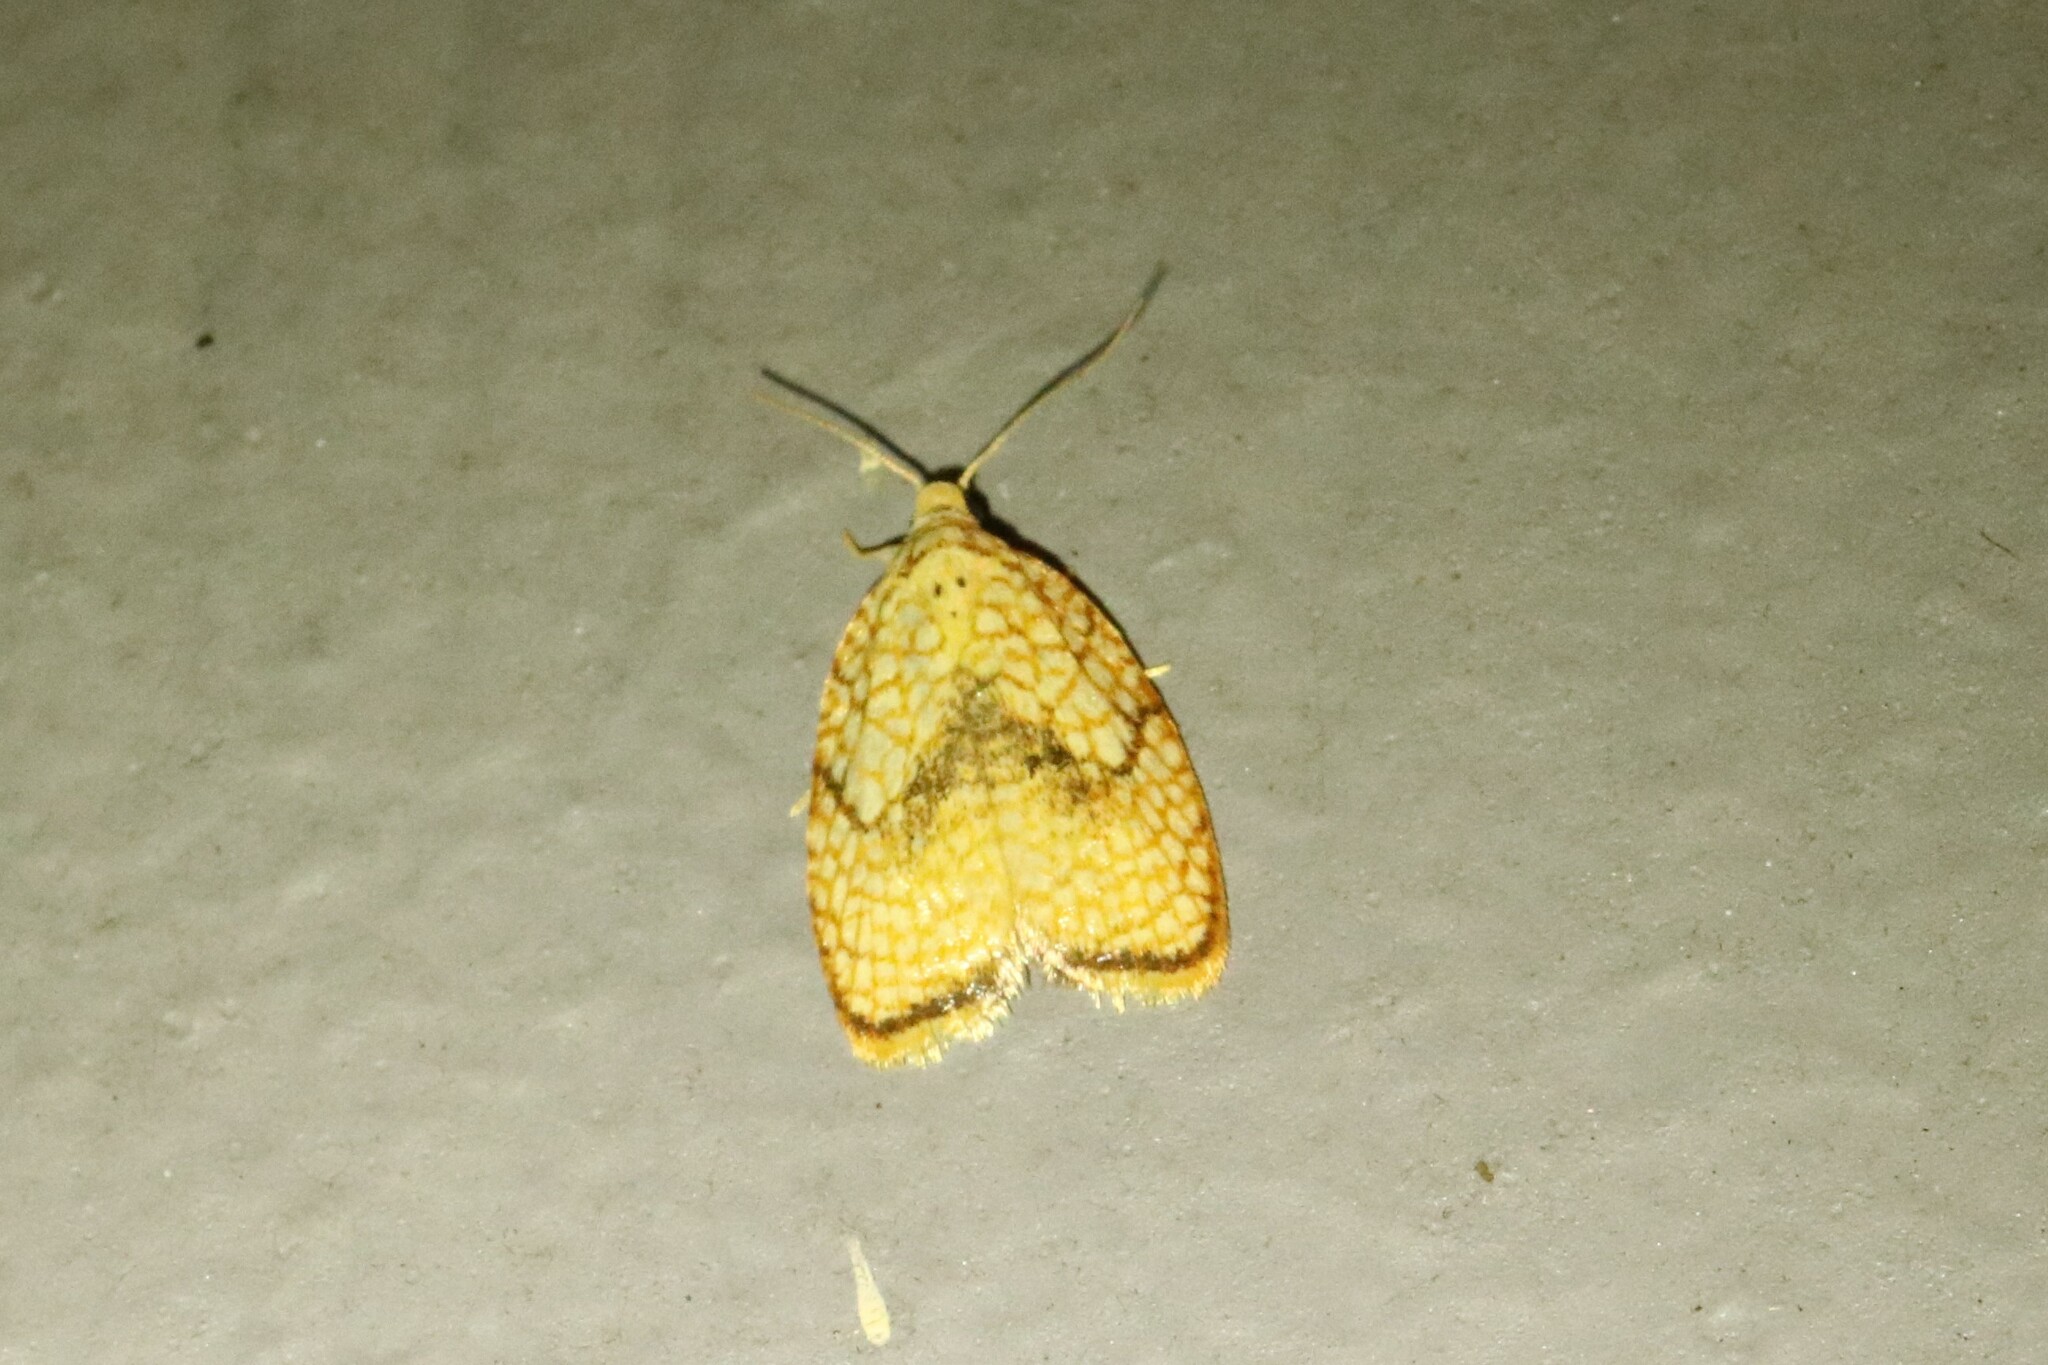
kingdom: Animalia
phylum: Arthropoda
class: Insecta
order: Lepidoptera
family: Tortricidae
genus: Acleris
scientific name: Acleris forsskaleana
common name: Maple button
